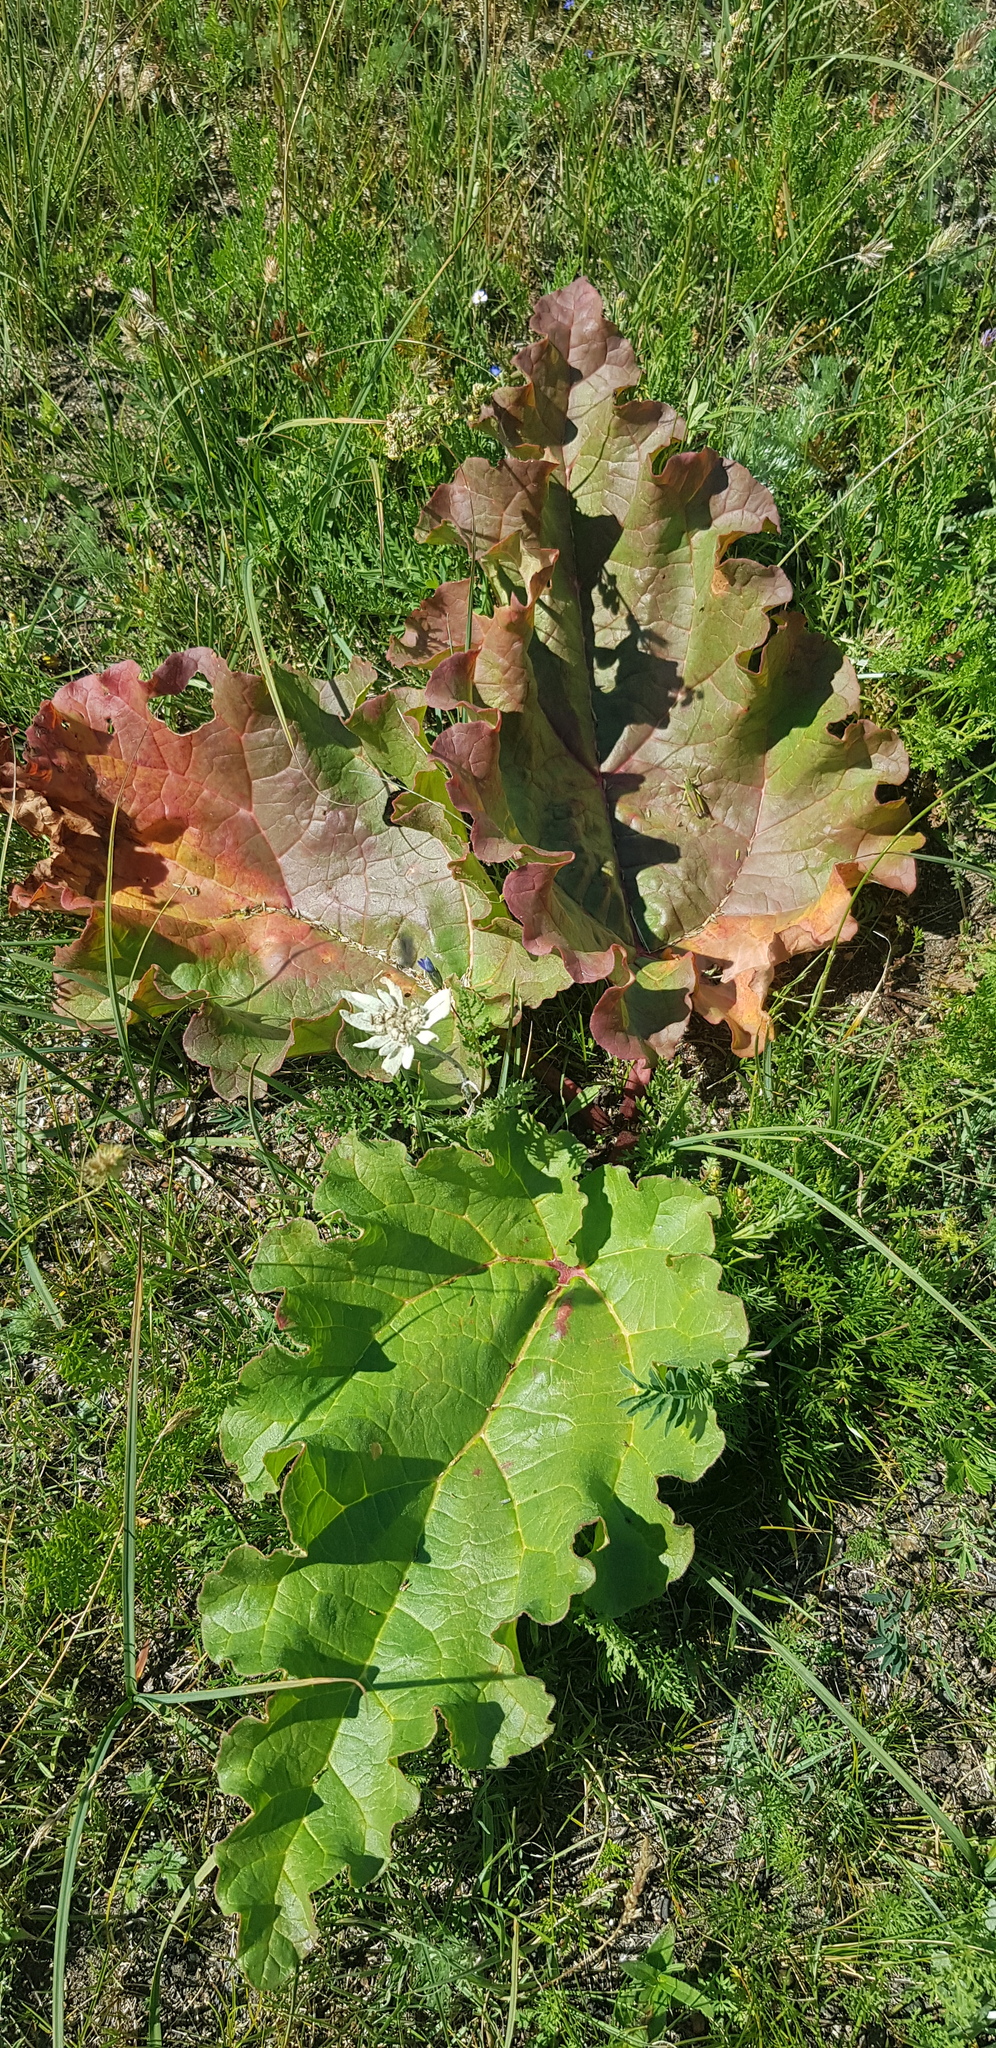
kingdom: Plantae
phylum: Tracheophyta
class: Magnoliopsida
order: Caryophyllales
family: Polygonaceae
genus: Rheum
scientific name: Rheum rhabarbarum
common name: Garden rhubarb
